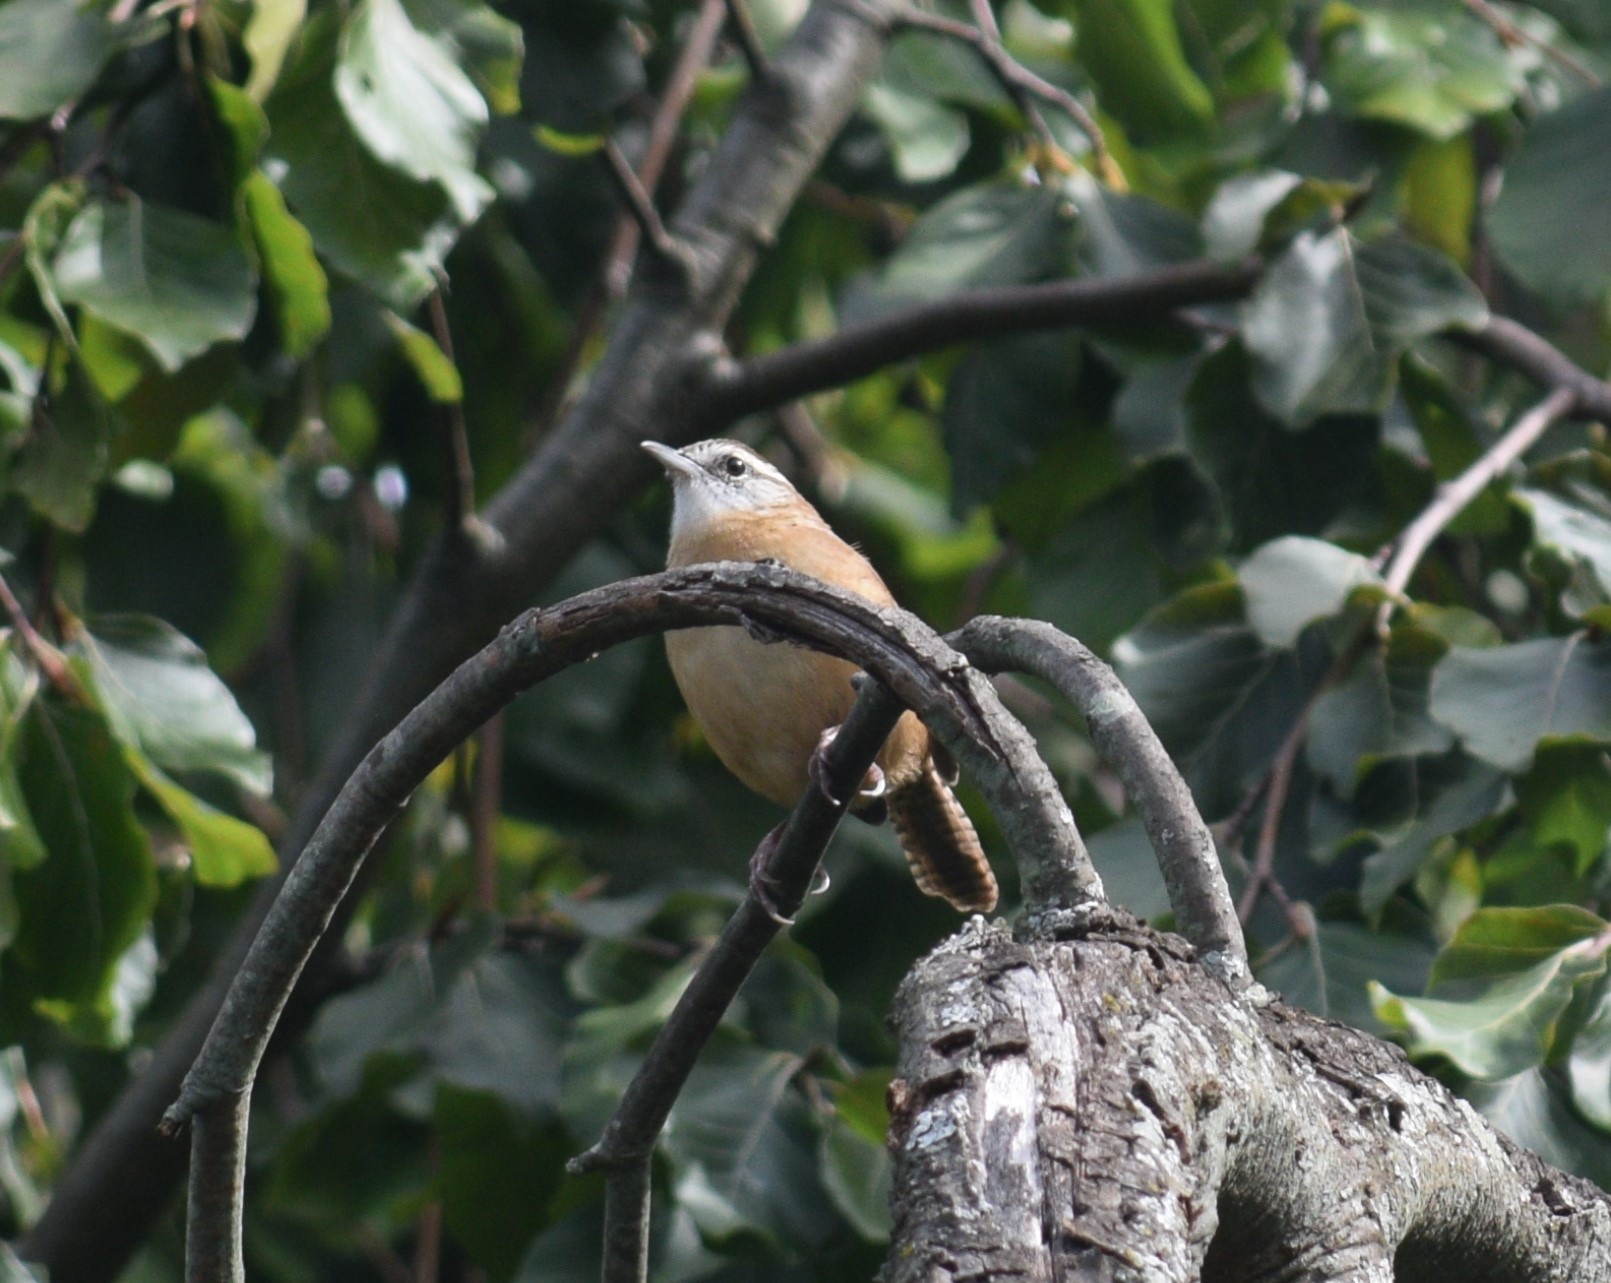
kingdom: Animalia
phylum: Chordata
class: Aves
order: Passeriformes
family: Troglodytidae
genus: Thryothorus
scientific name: Thryothorus ludovicianus
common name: Carolina wren
